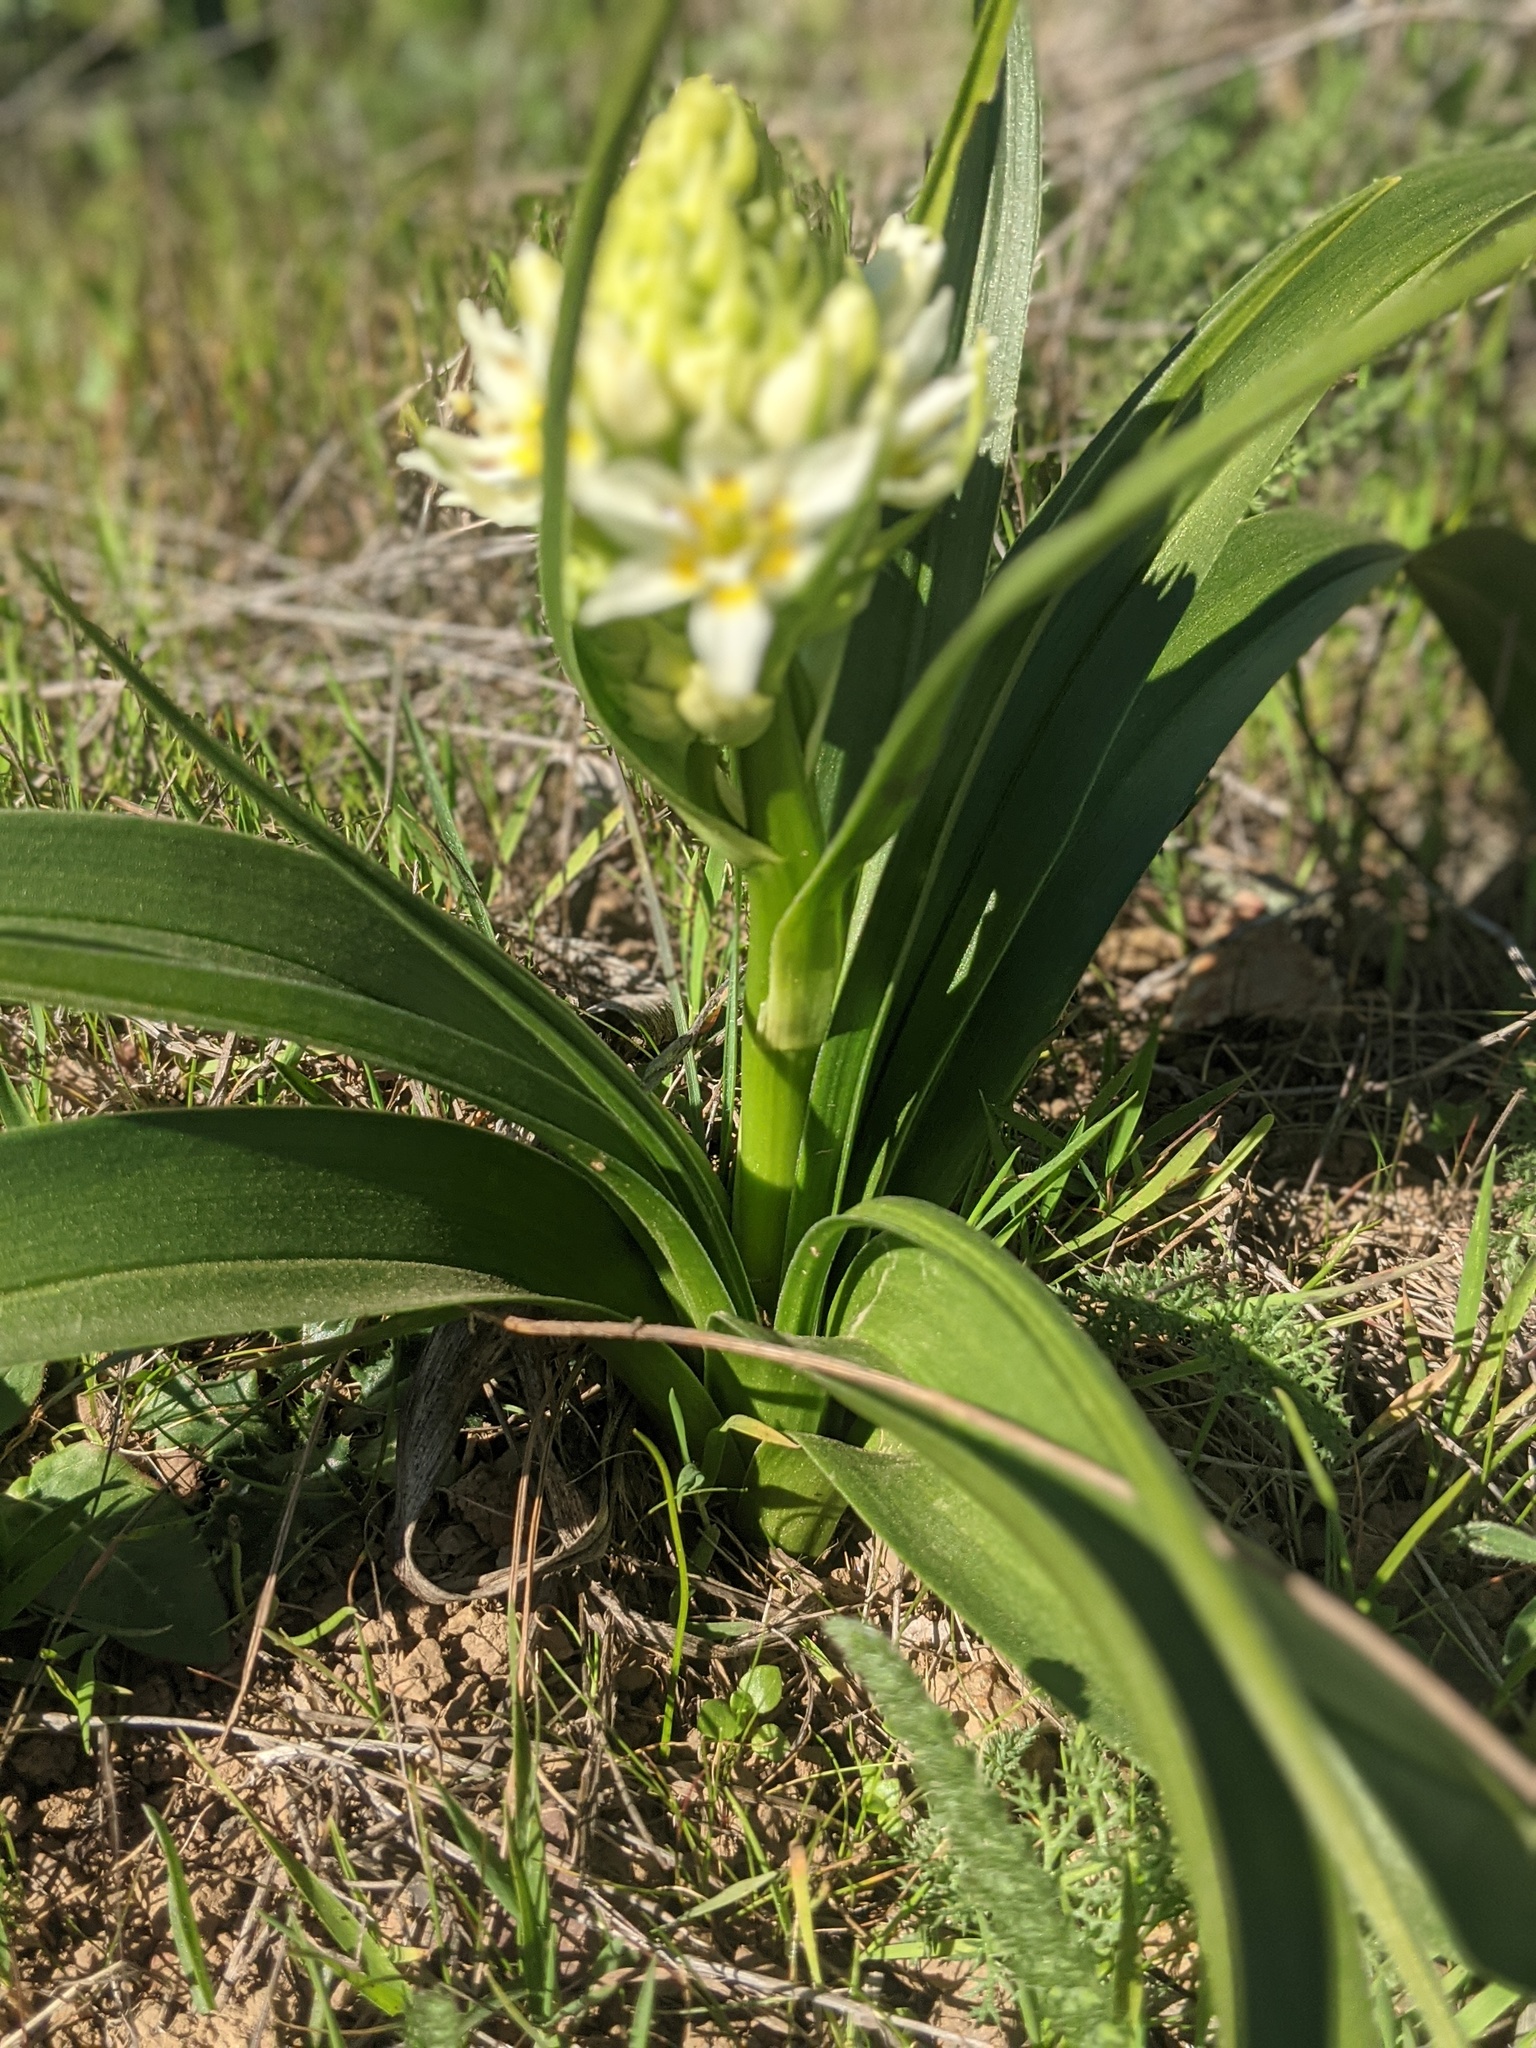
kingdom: Plantae
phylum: Tracheophyta
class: Liliopsida
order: Liliales
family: Melanthiaceae
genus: Toxicoscordion
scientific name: Toxicoscordion fremontii
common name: Fremont's death camas
